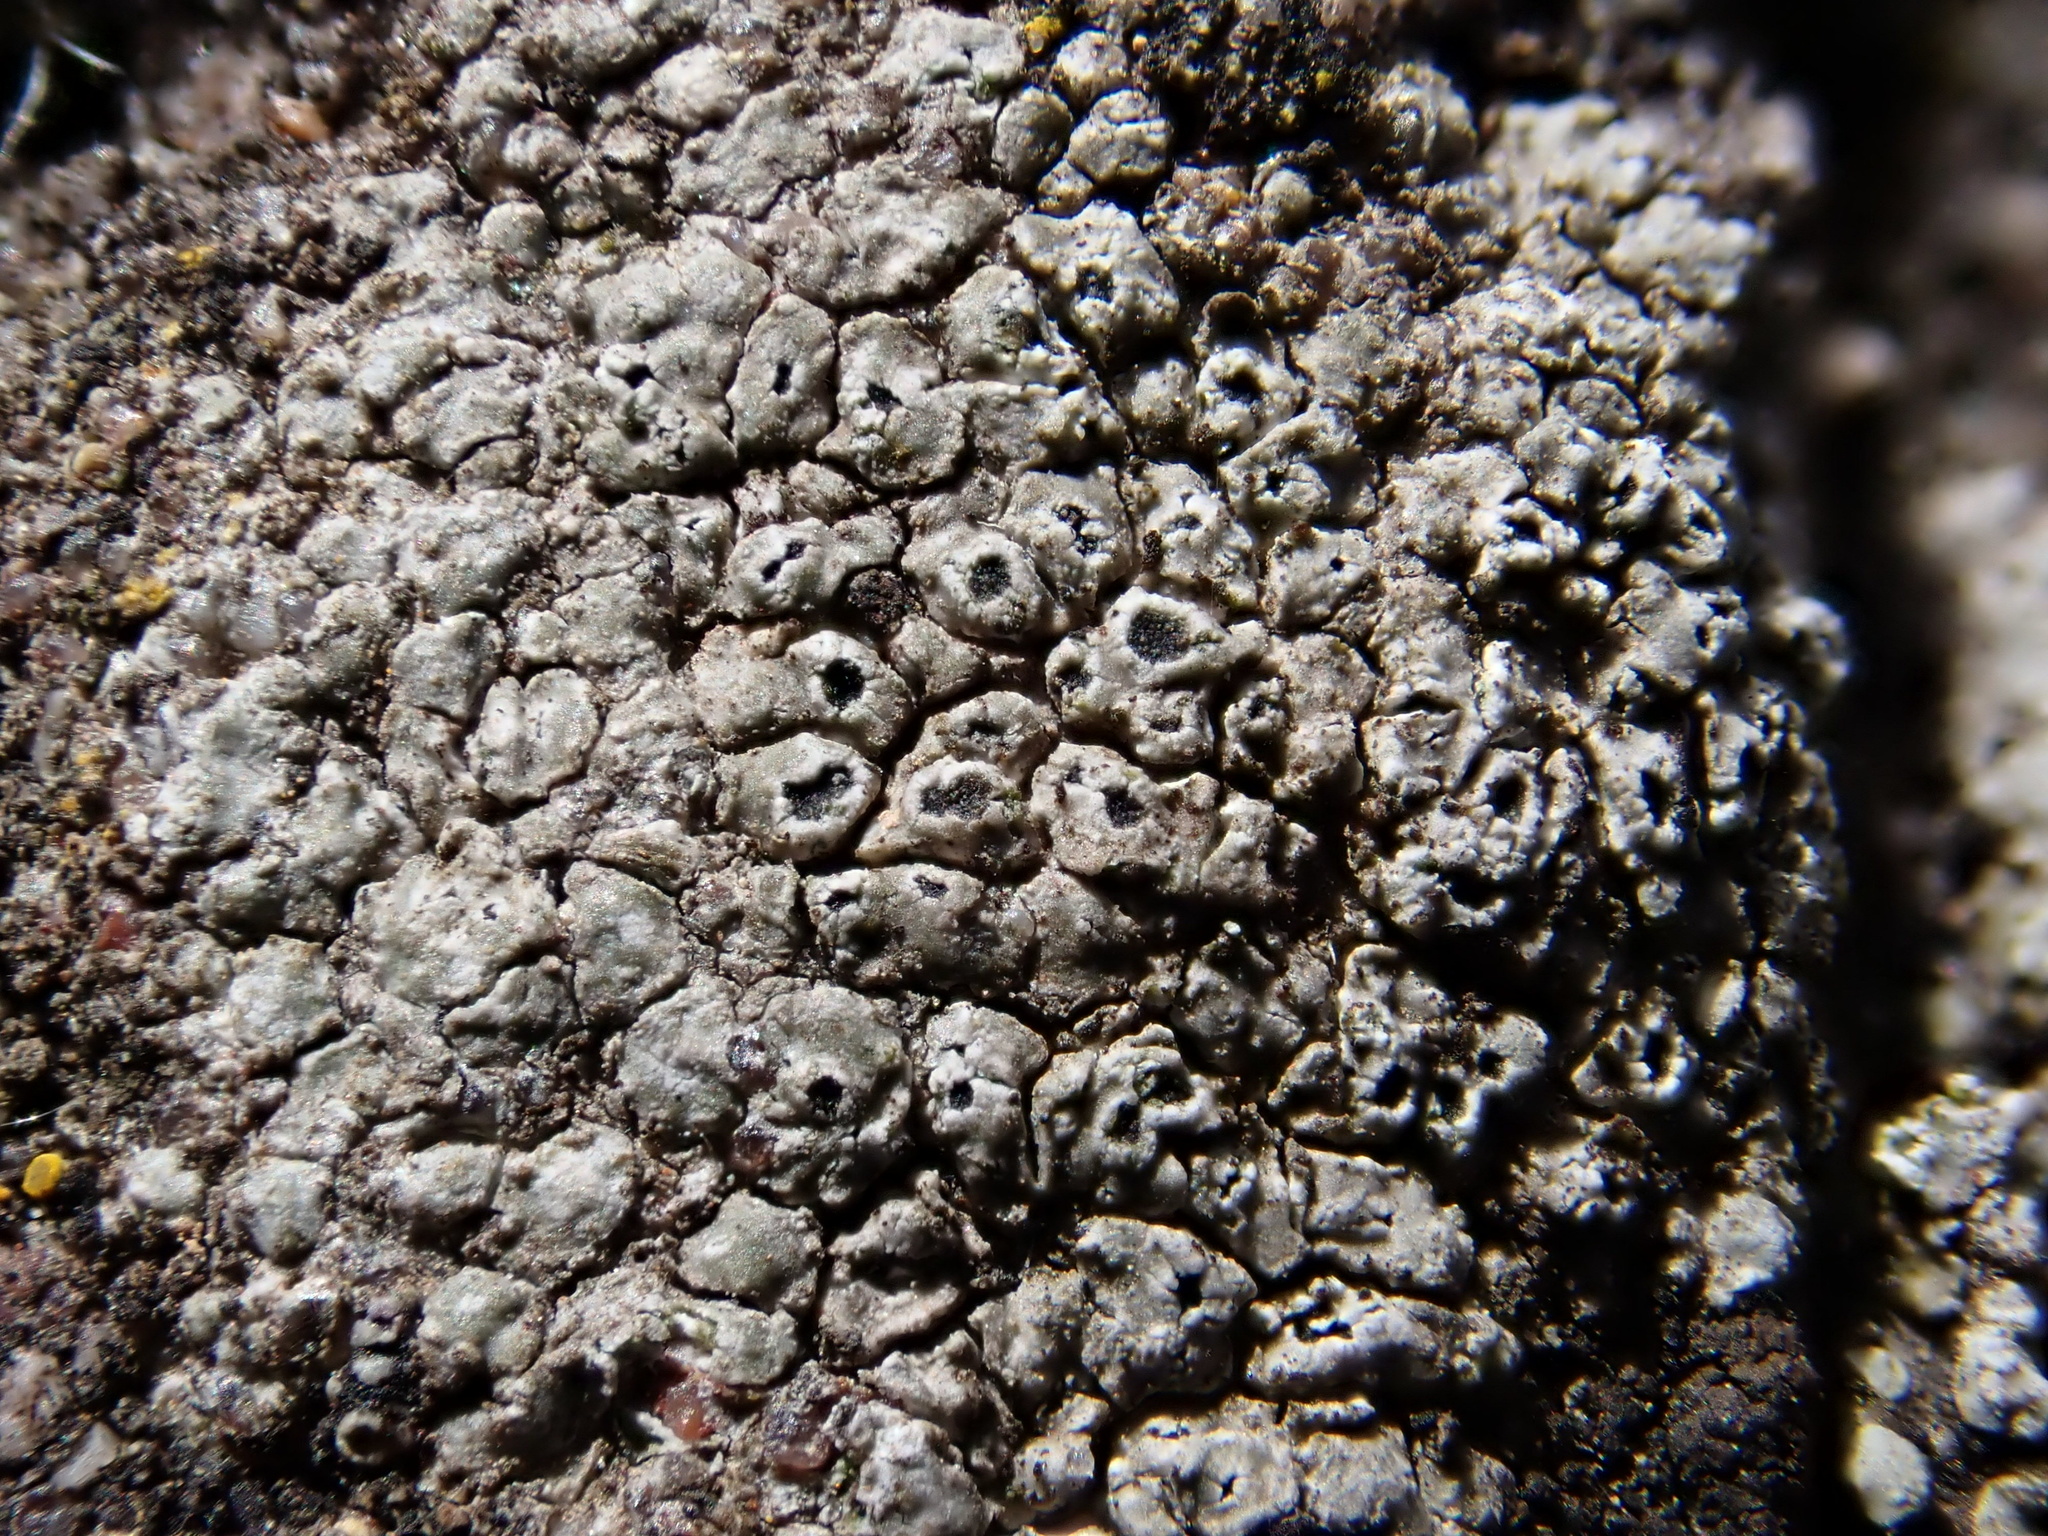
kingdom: Fungi
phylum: Ascomycota
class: Lecanoromycetes
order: Pertusariales
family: Megasporaceae
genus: Circinaria
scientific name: Circinaria contorta
